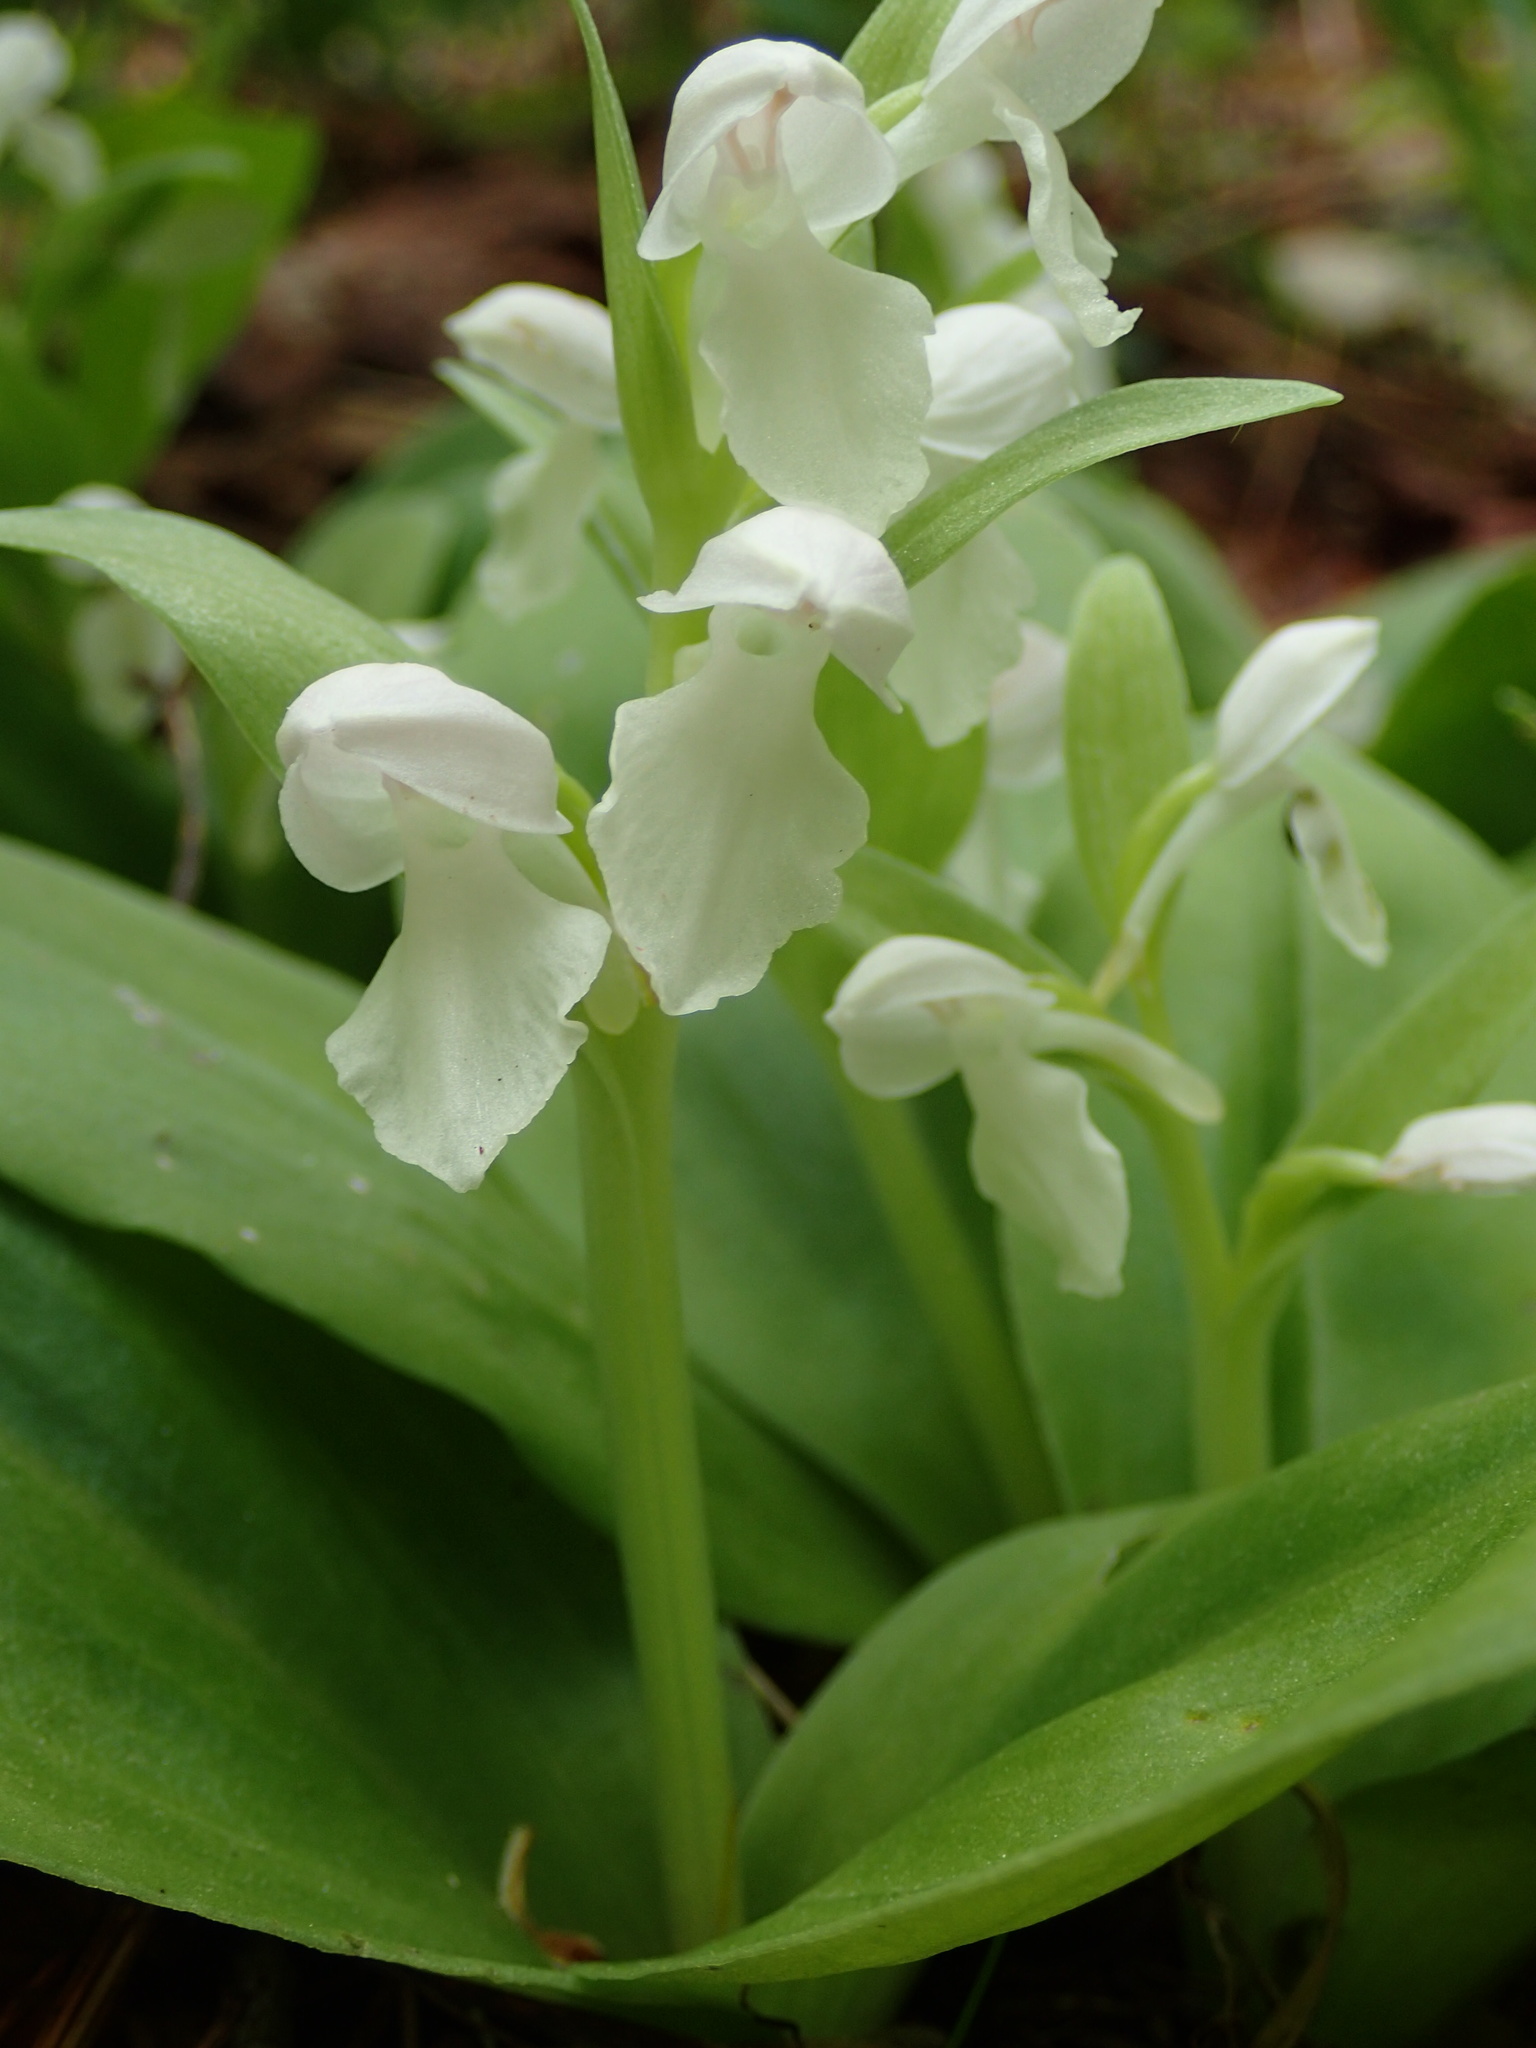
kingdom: Plantae
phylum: Tracheophyta
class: Liliopsida
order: Asparagales
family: Orchidaceae
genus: Galearis
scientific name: Galearis spectabilis
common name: Purple-hooded orchis
